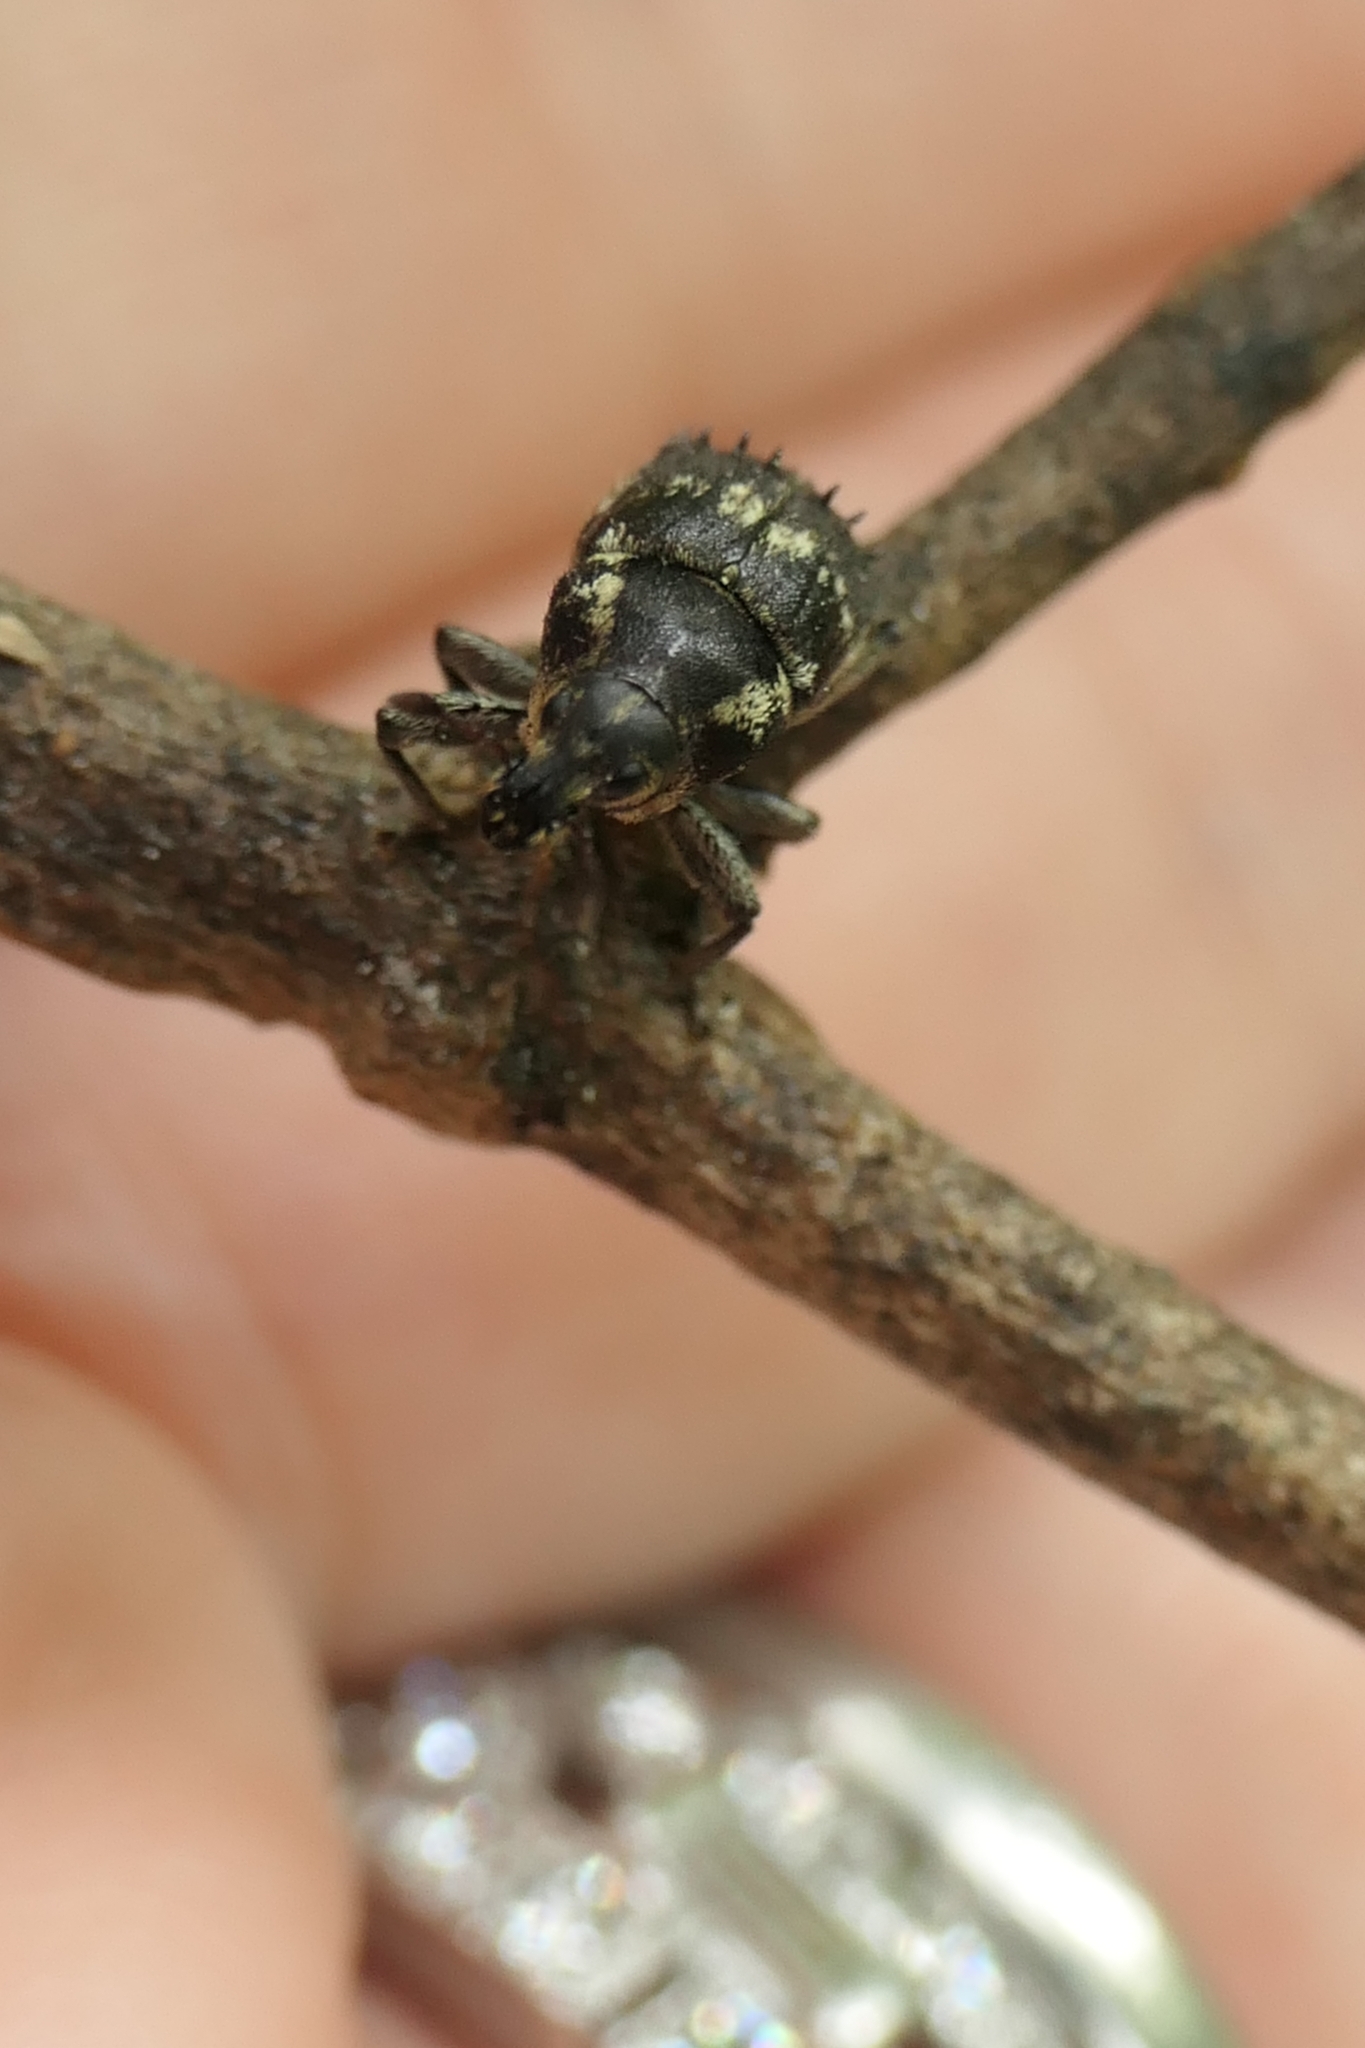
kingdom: Animalia
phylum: Arthropoda
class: Insecta
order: Coleoptera
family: Curculionidae
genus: Psepholax
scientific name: Psepholax coronatus
